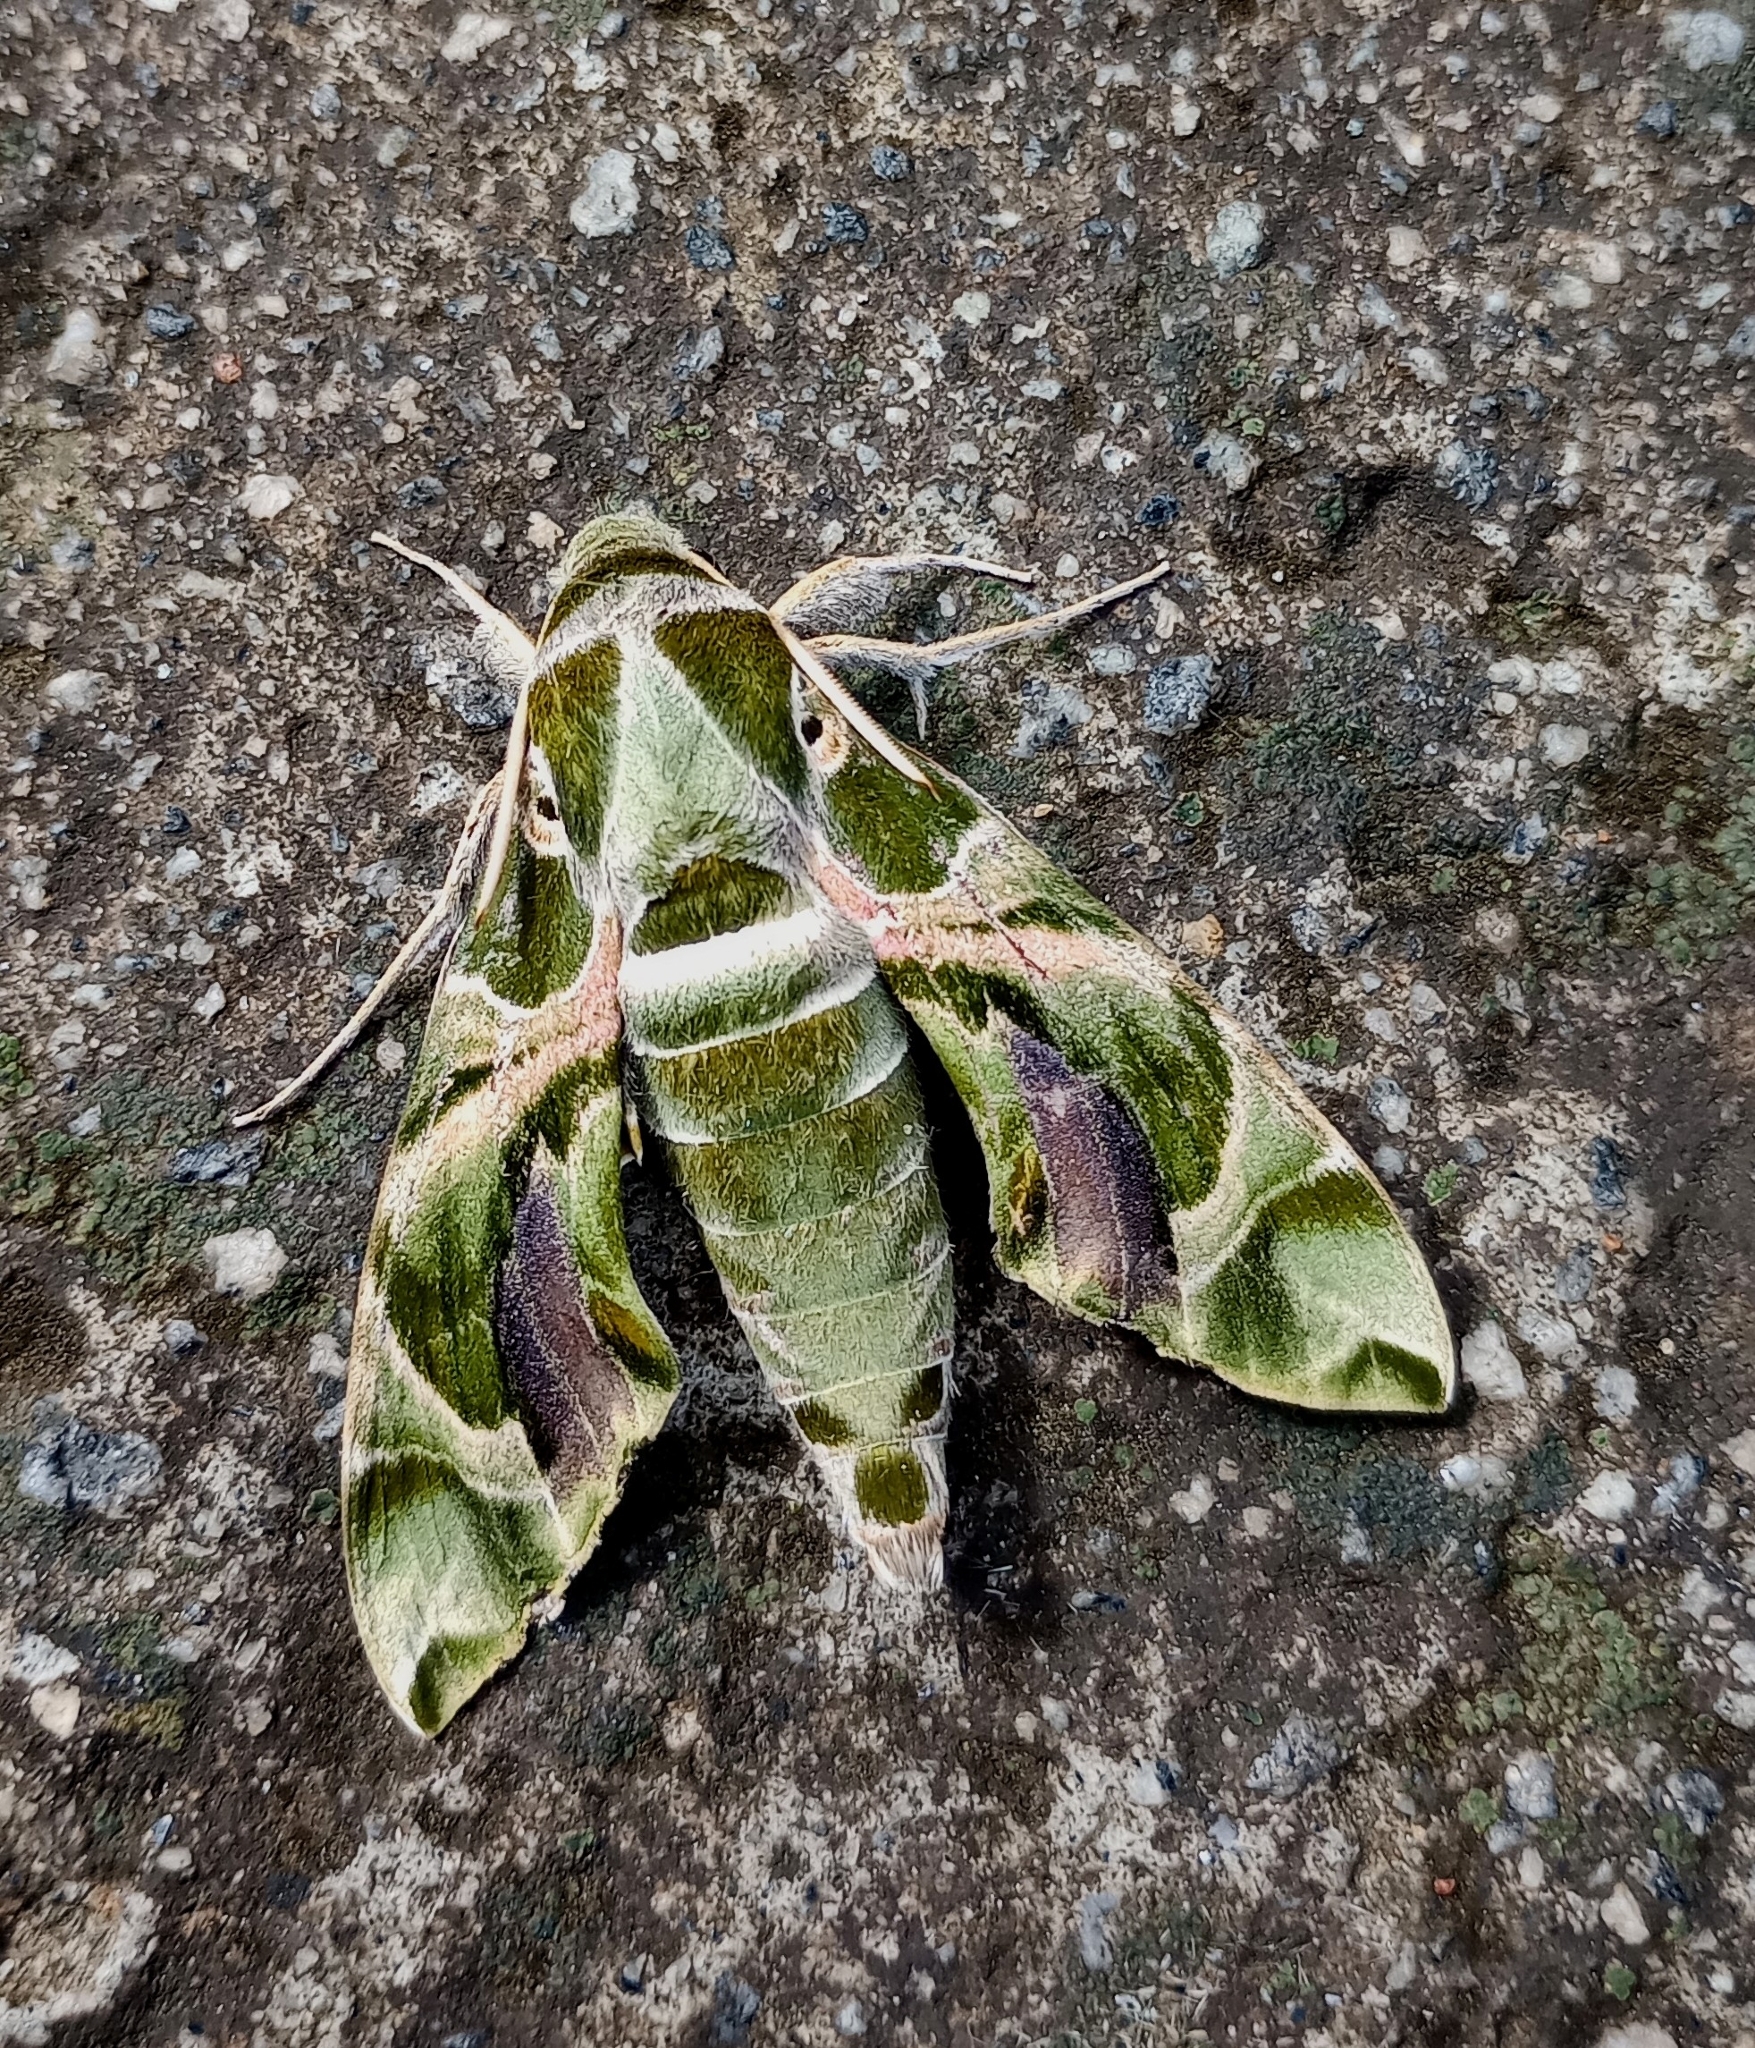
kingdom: Animalia
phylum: Arthropoda
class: Insecta
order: Lepidoptera
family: Sphingidae
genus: Daphnis
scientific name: Daphnis nerii
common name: Oleander hawk-moth
